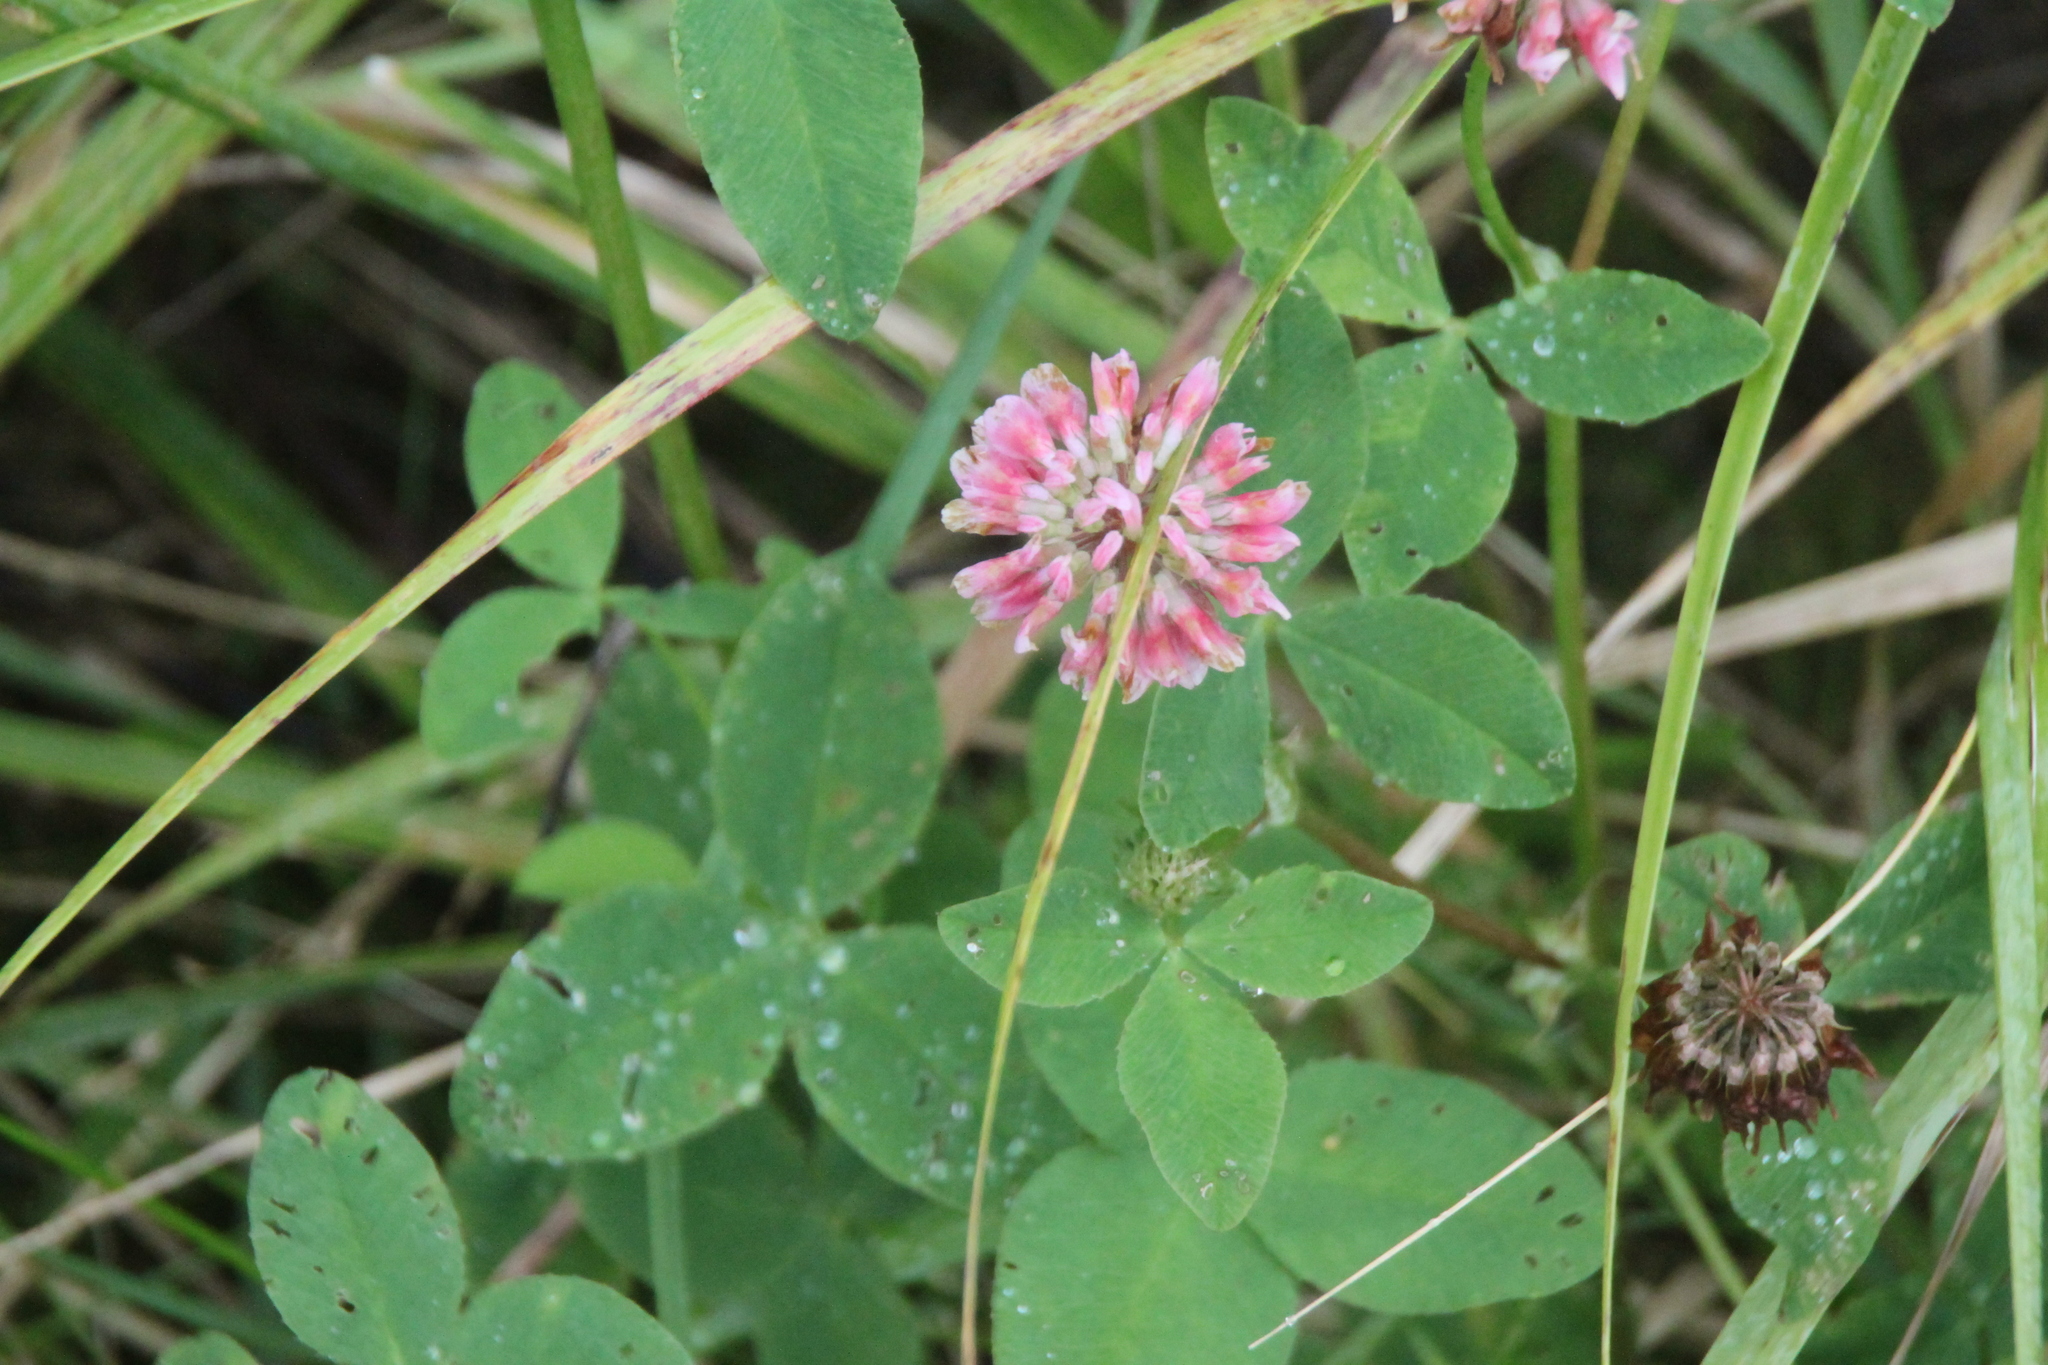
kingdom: Plantae
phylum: Tracheophyta
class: Magnoliopsida
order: Fabales
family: Fabaceae
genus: Trifolium
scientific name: Trifolium hybridum
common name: Alsike clover
